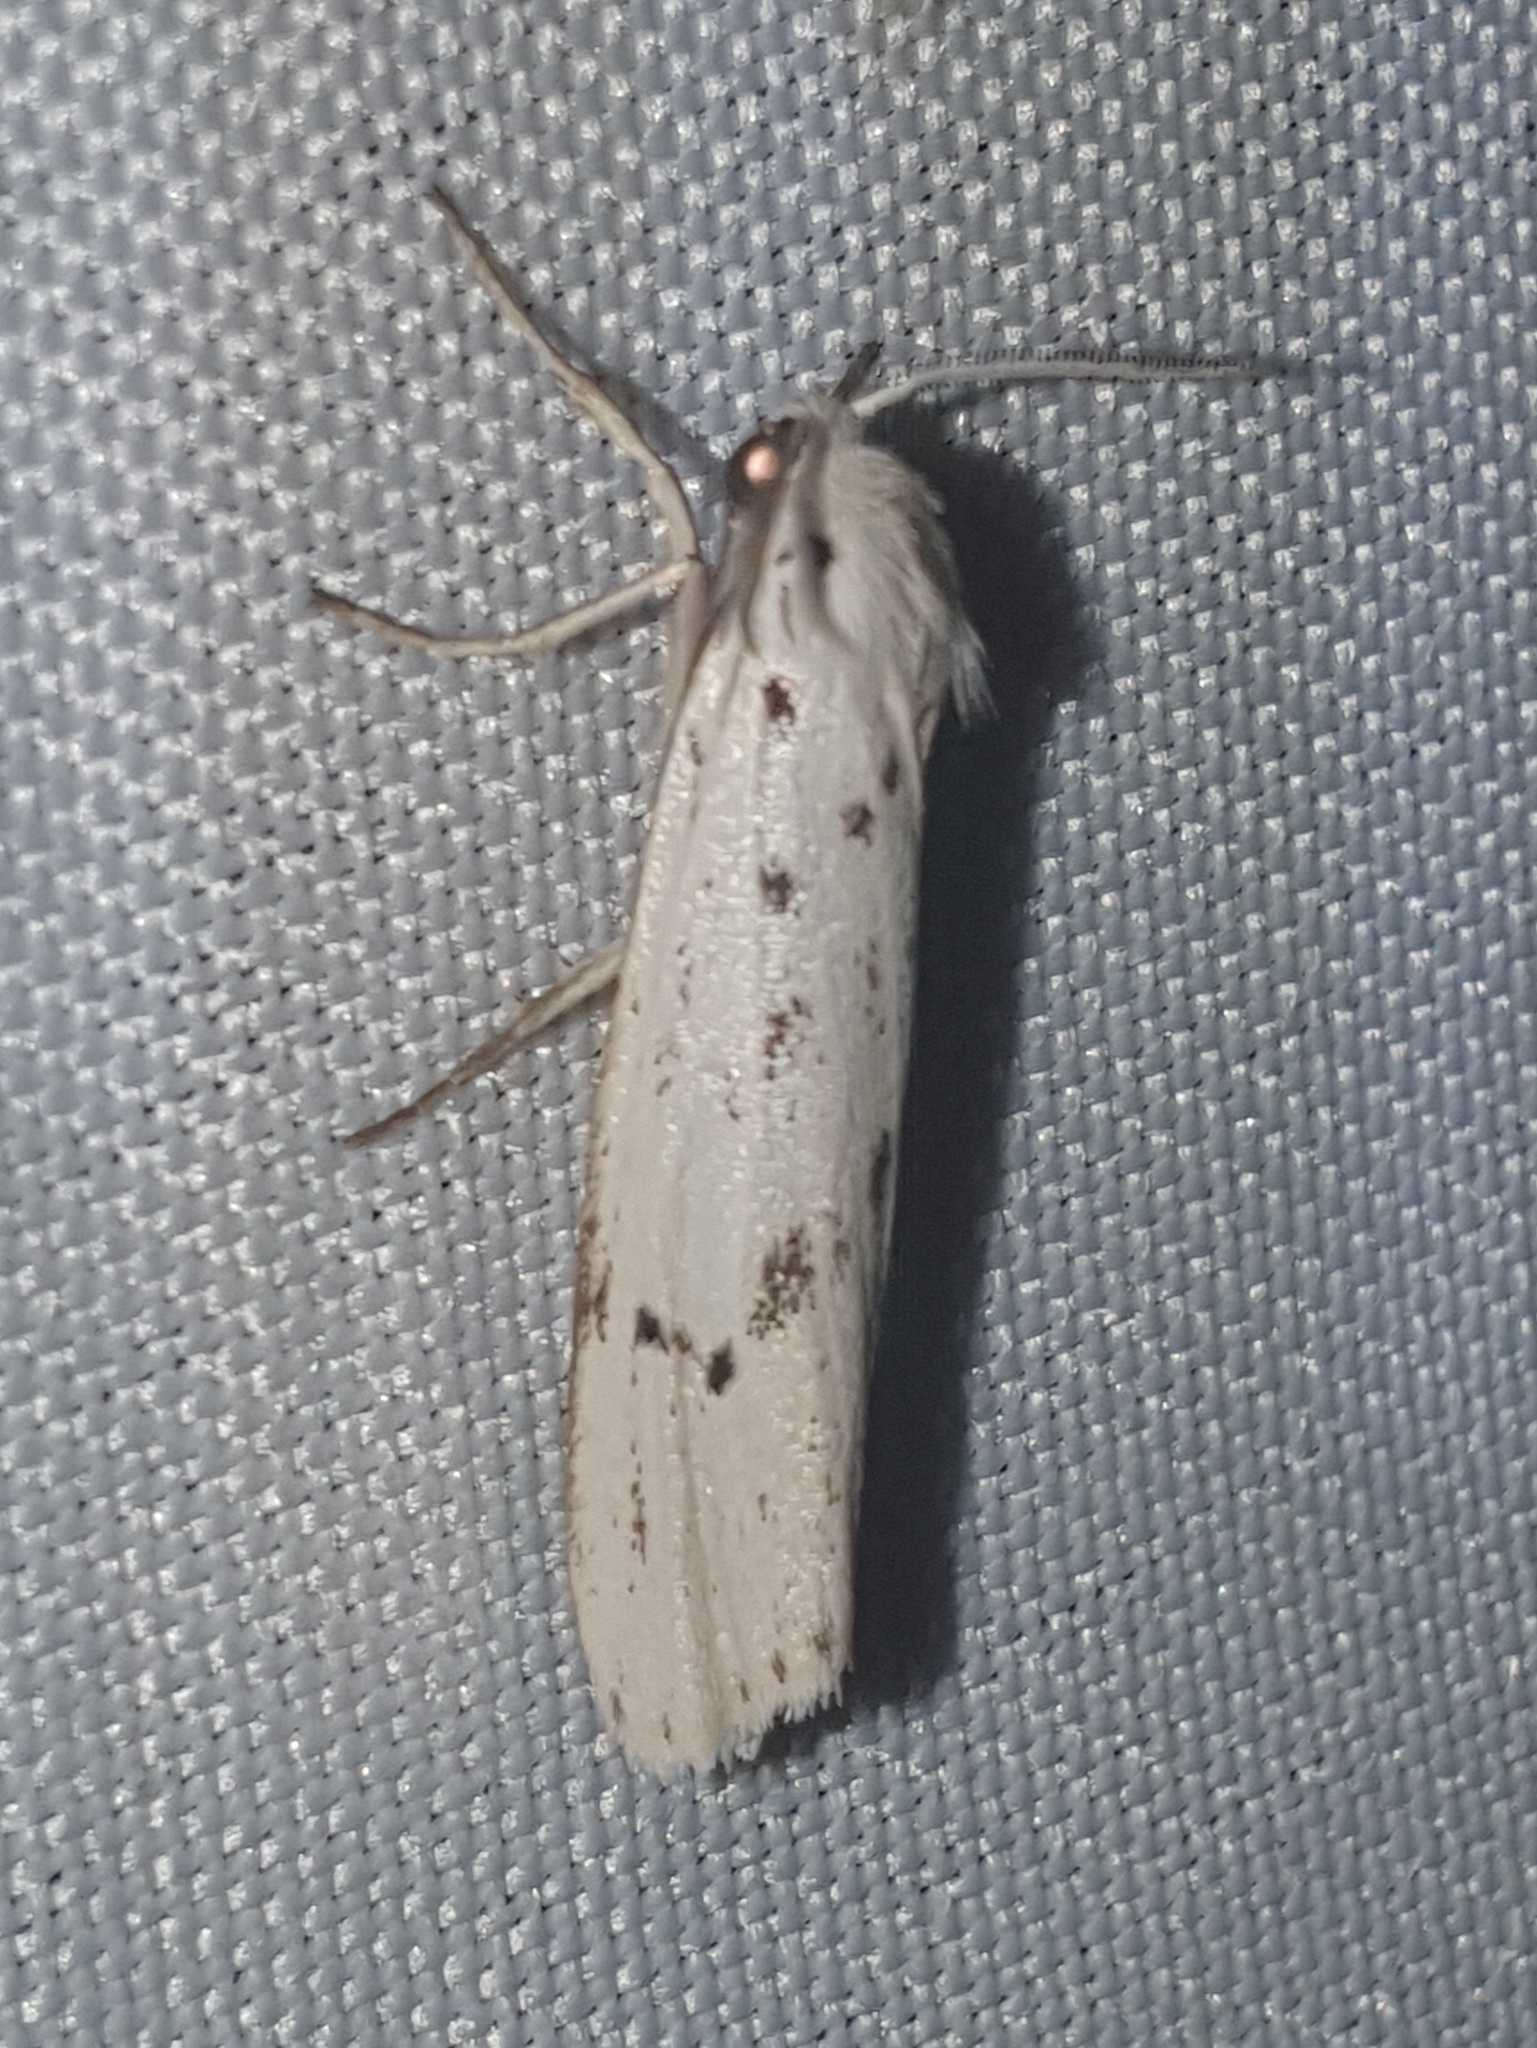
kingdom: Animalia
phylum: Arthropoda
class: Insecta
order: Lepidoptera
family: Erebidae
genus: Coscinia
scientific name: Coscinia cribraria
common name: Speckled footman
